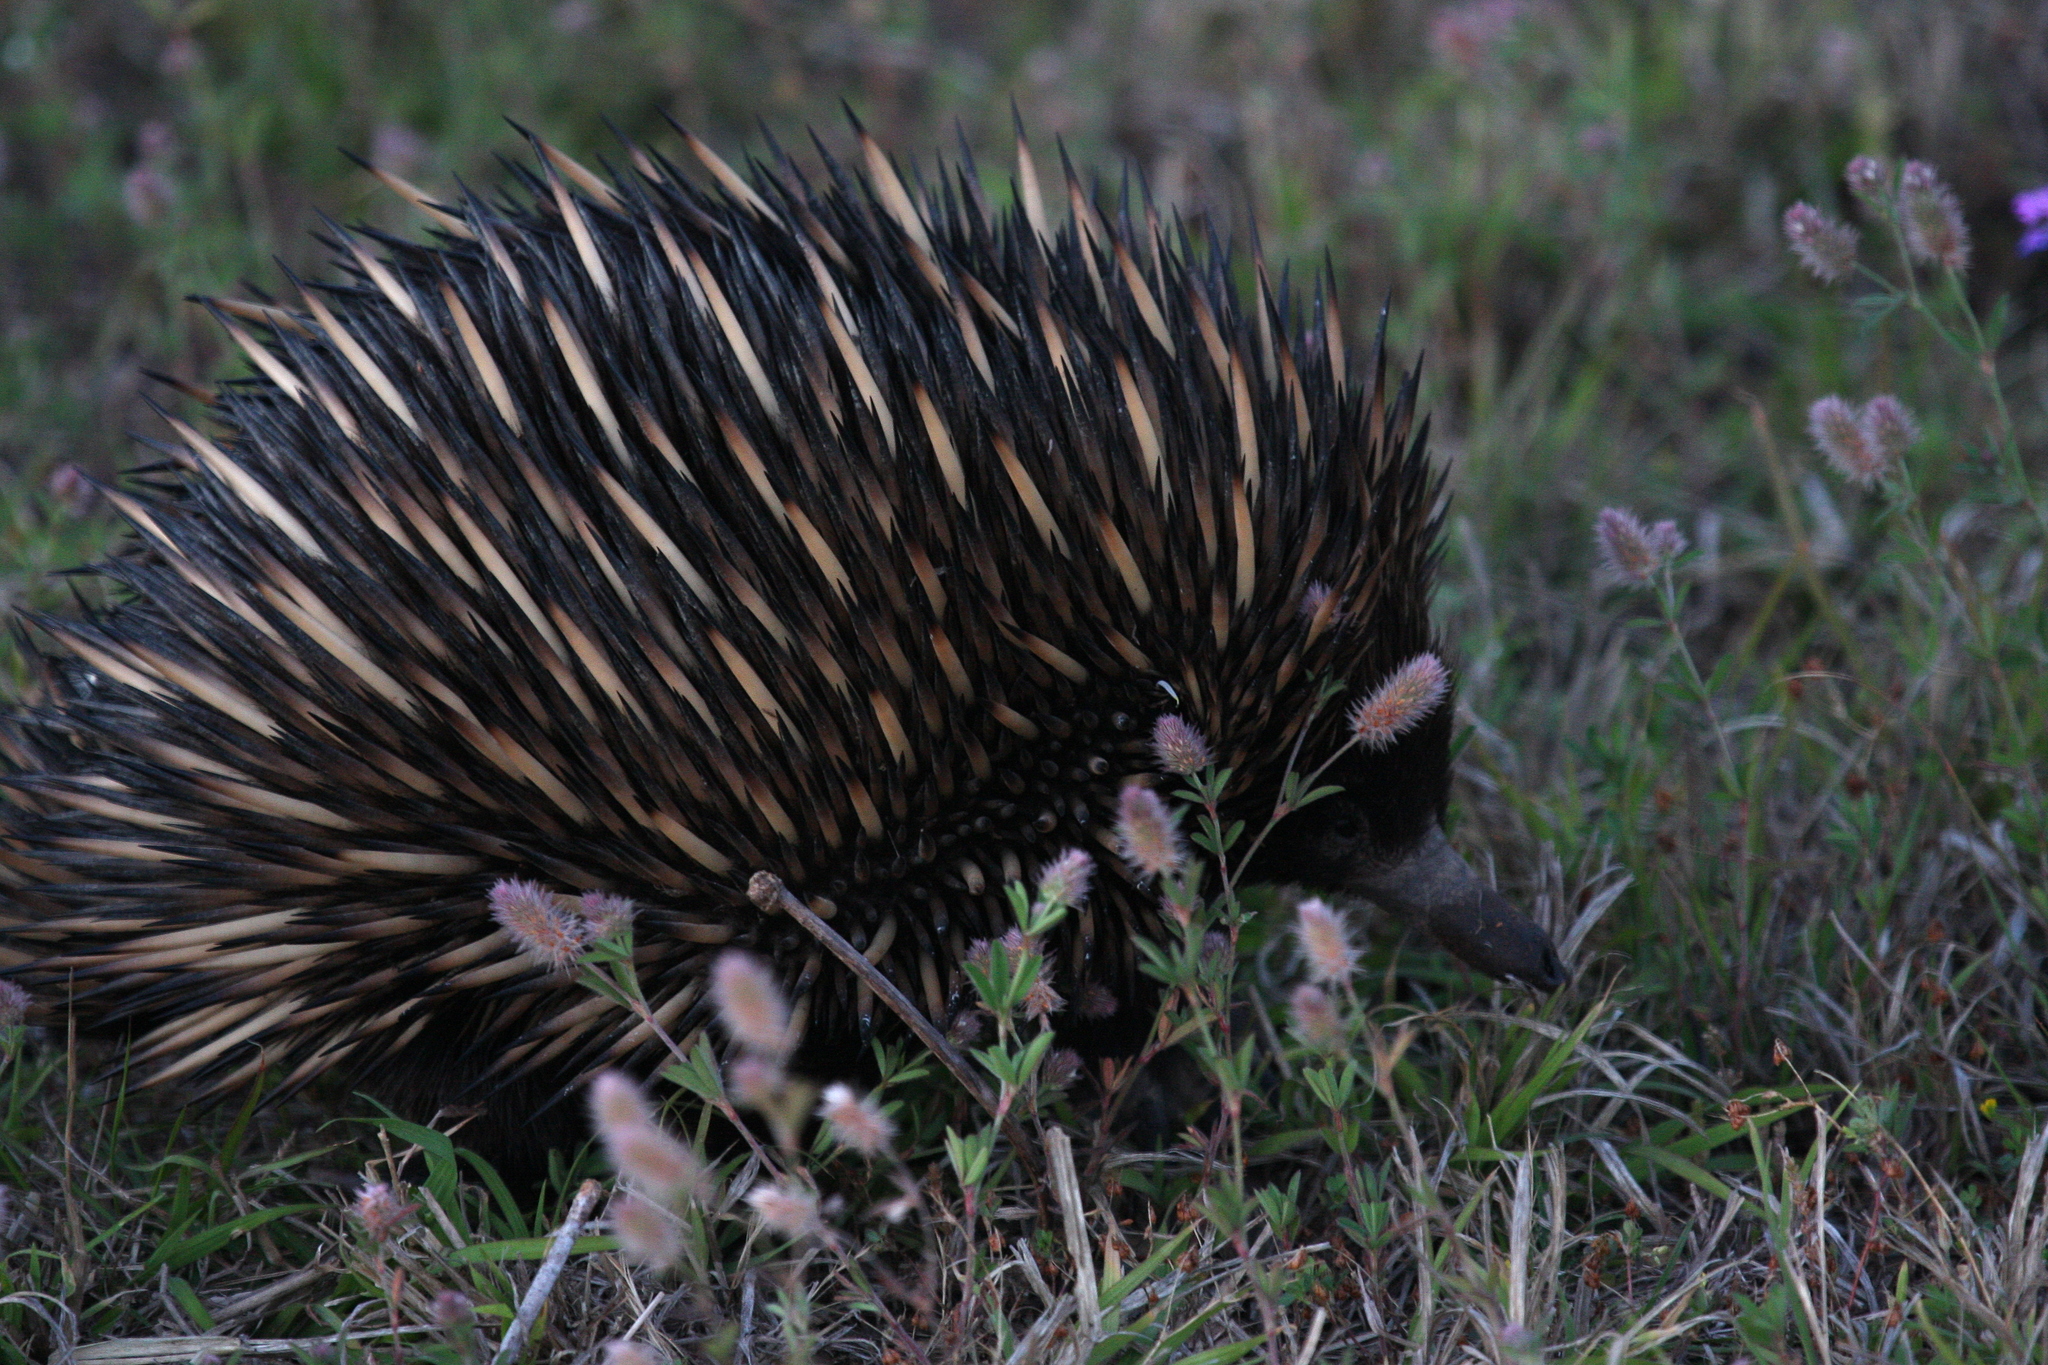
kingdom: Animalia
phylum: Chordata
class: Mammalia
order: Monotremata
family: Tachyglossidae
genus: Tachyglossus
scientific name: Tachyglossus aculeatus
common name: Short-beaked echidna
